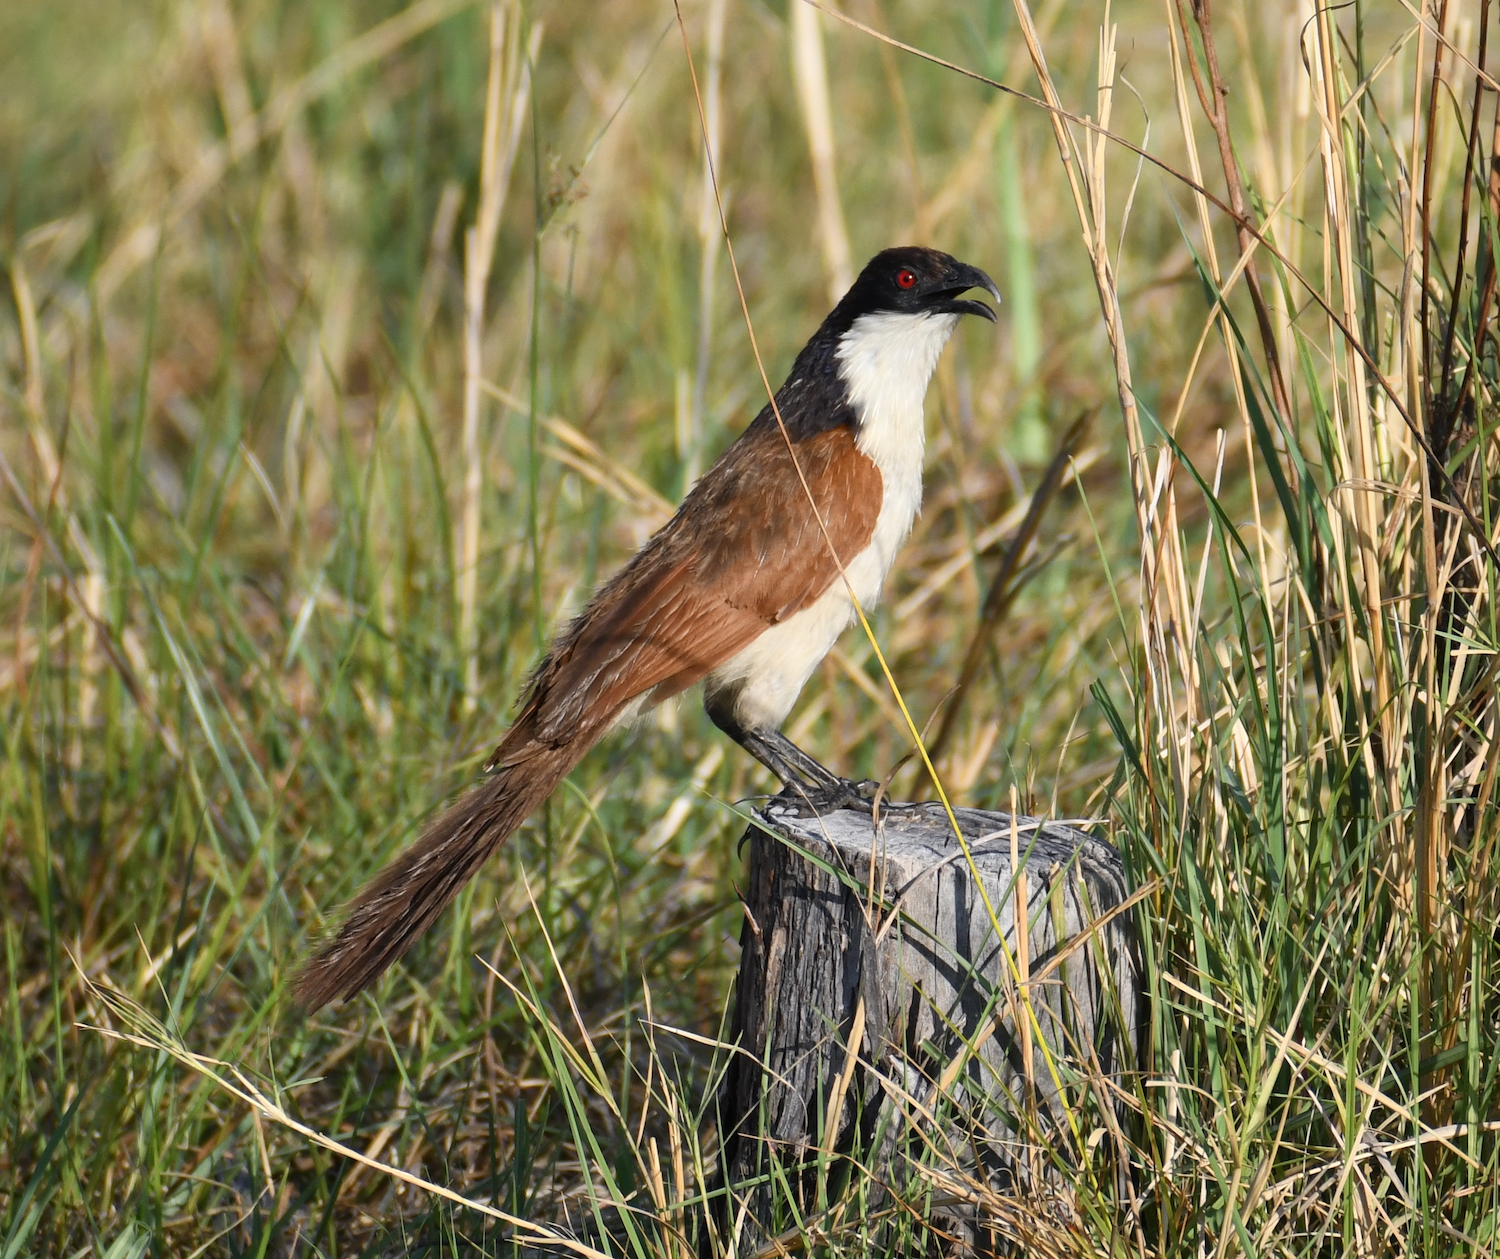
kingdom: Animalia
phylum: Chordata
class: Aves
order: Cuculiformes
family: Cuculidae
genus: Centropus
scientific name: Centropus cupreicaudus
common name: Coppery-tailed coucal
